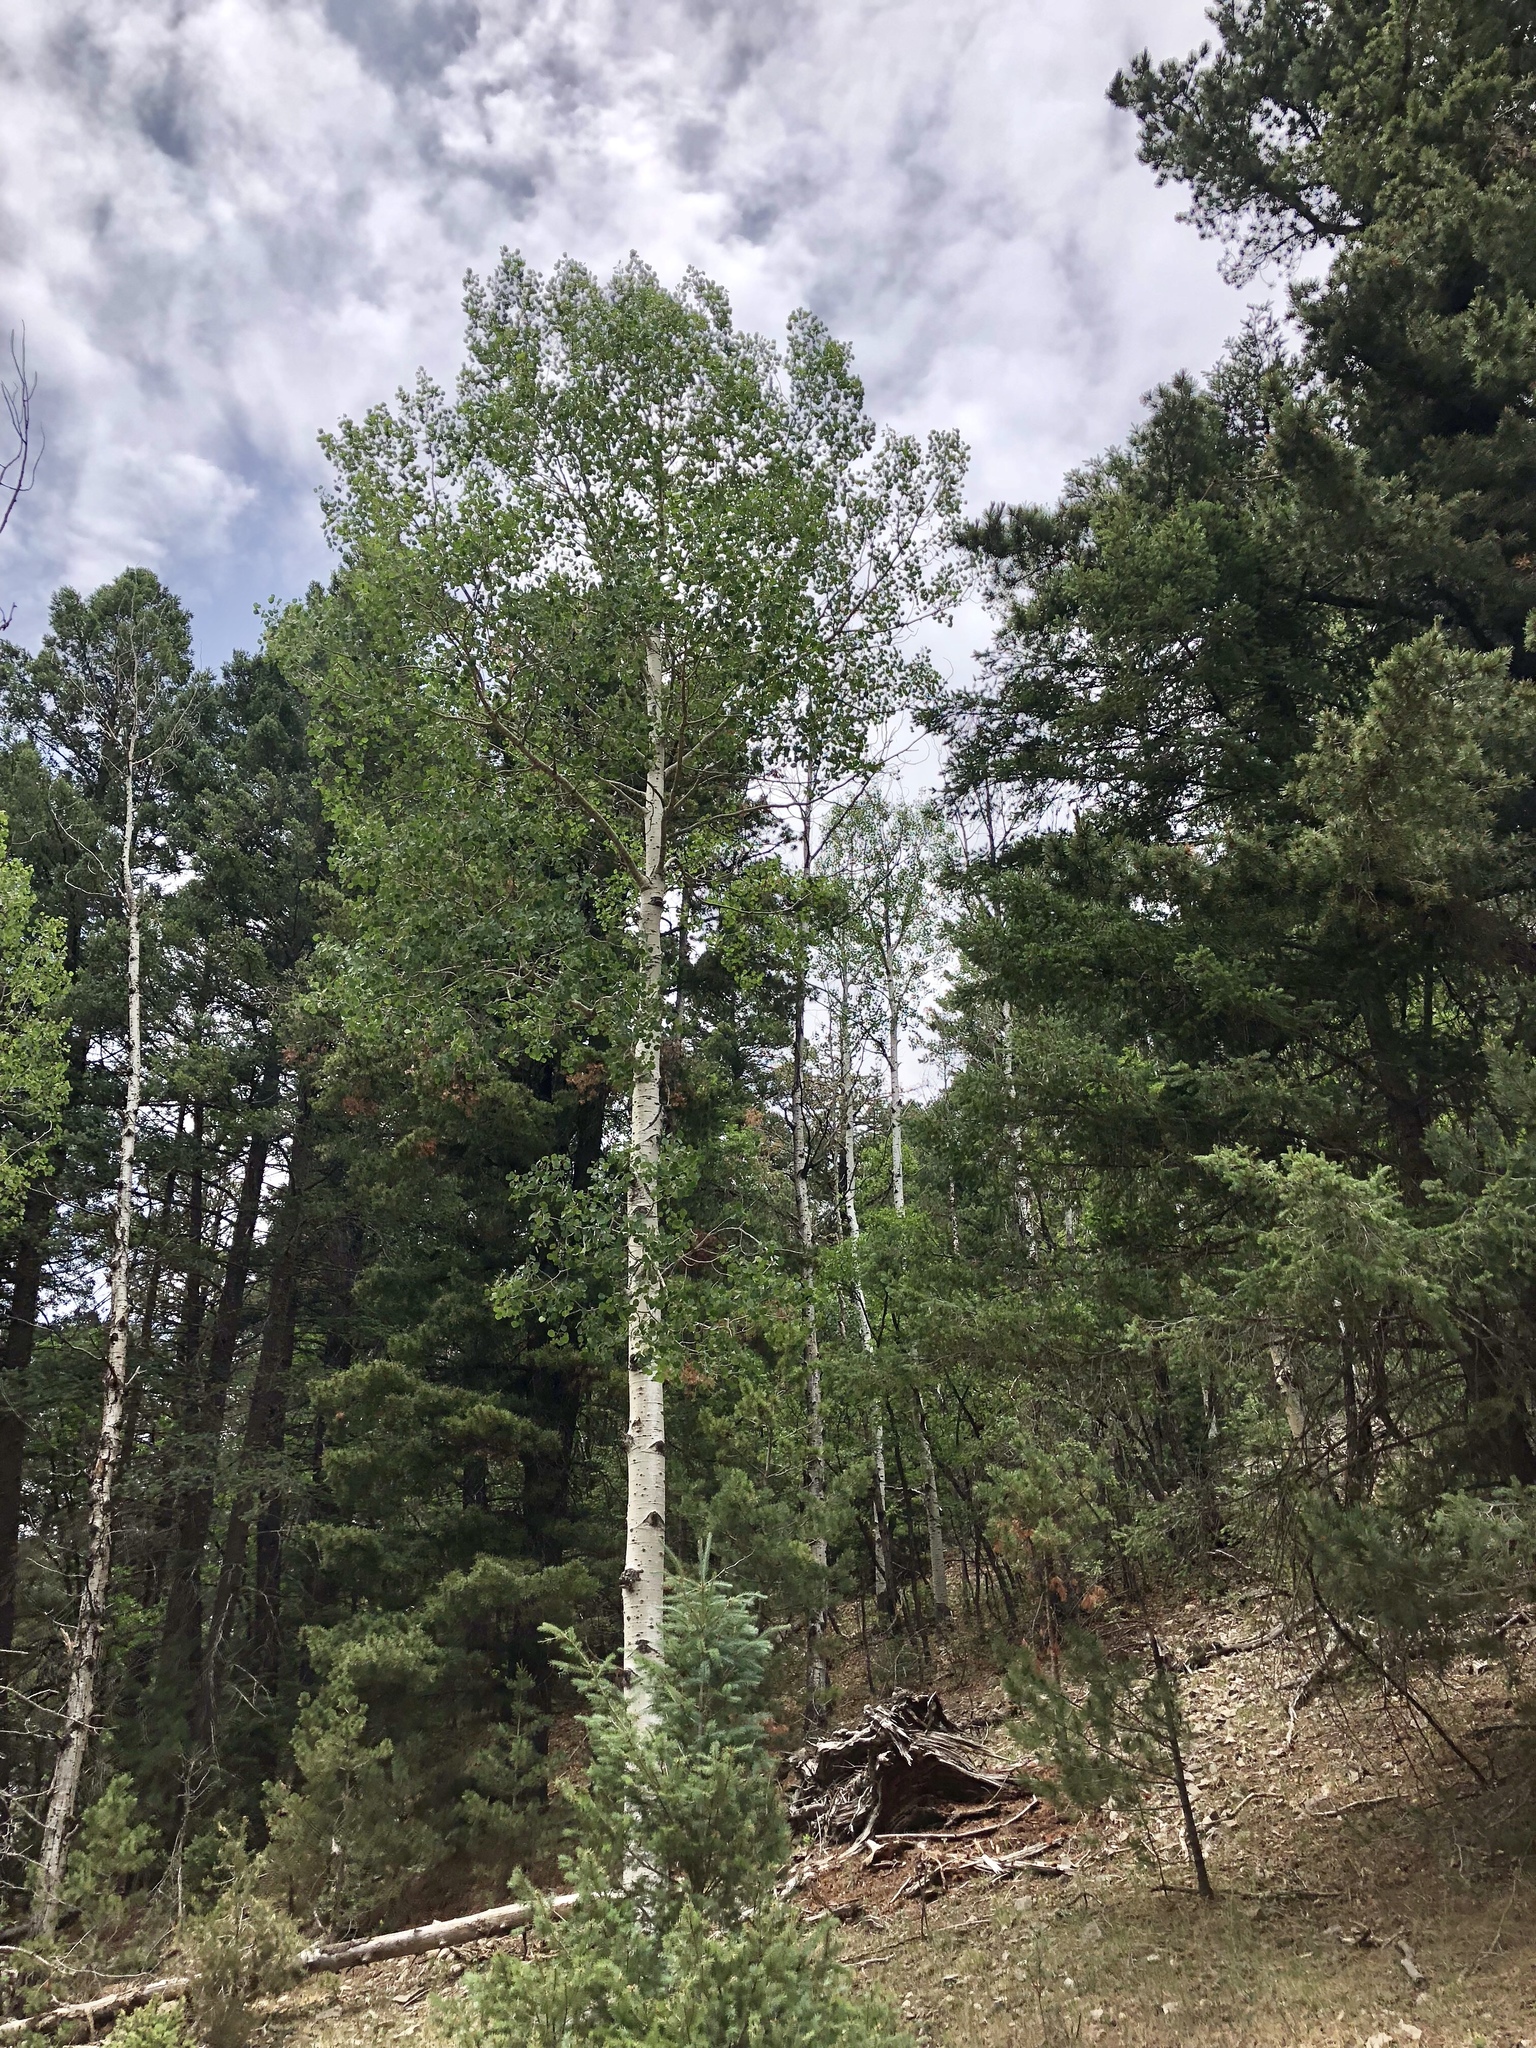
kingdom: Plantae
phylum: Tracheophyta
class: Magnoliopsida
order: Malpighiales
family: Salicaceae
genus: Populus
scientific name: Populus tremuloides
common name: Quaking aspen
